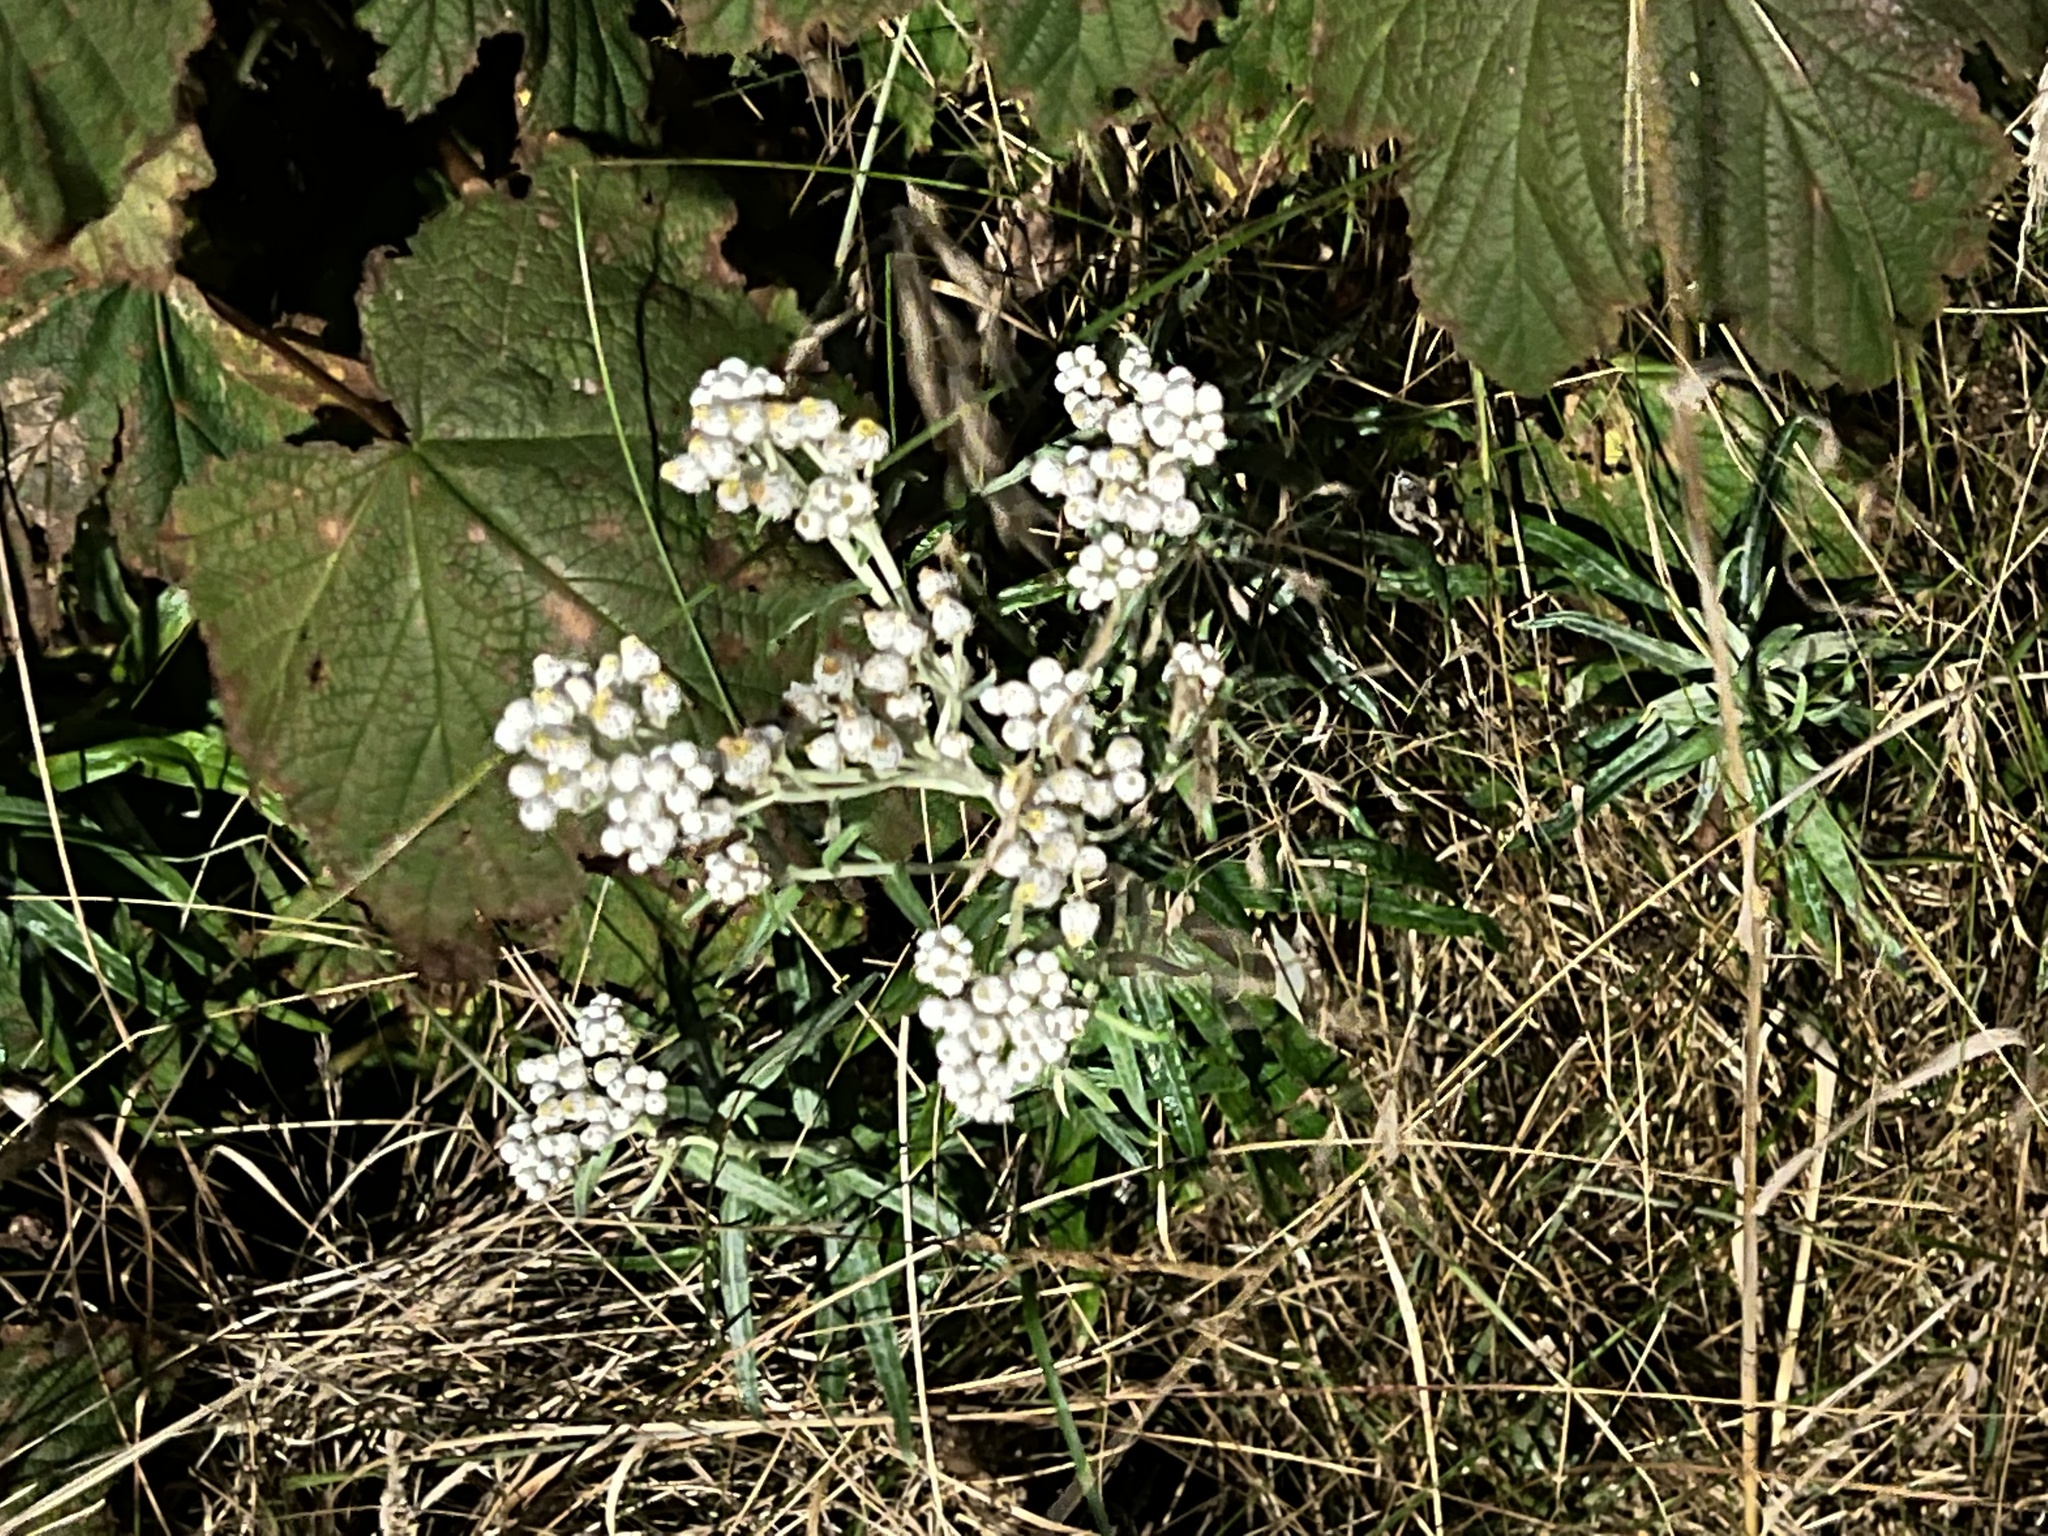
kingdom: Plantae
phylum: Tracheophyta
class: Magnoliopsida
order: Asterales
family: Asteraceae
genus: Anaphalis
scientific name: Anaphalis margaritacea
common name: Pearly everlasting
